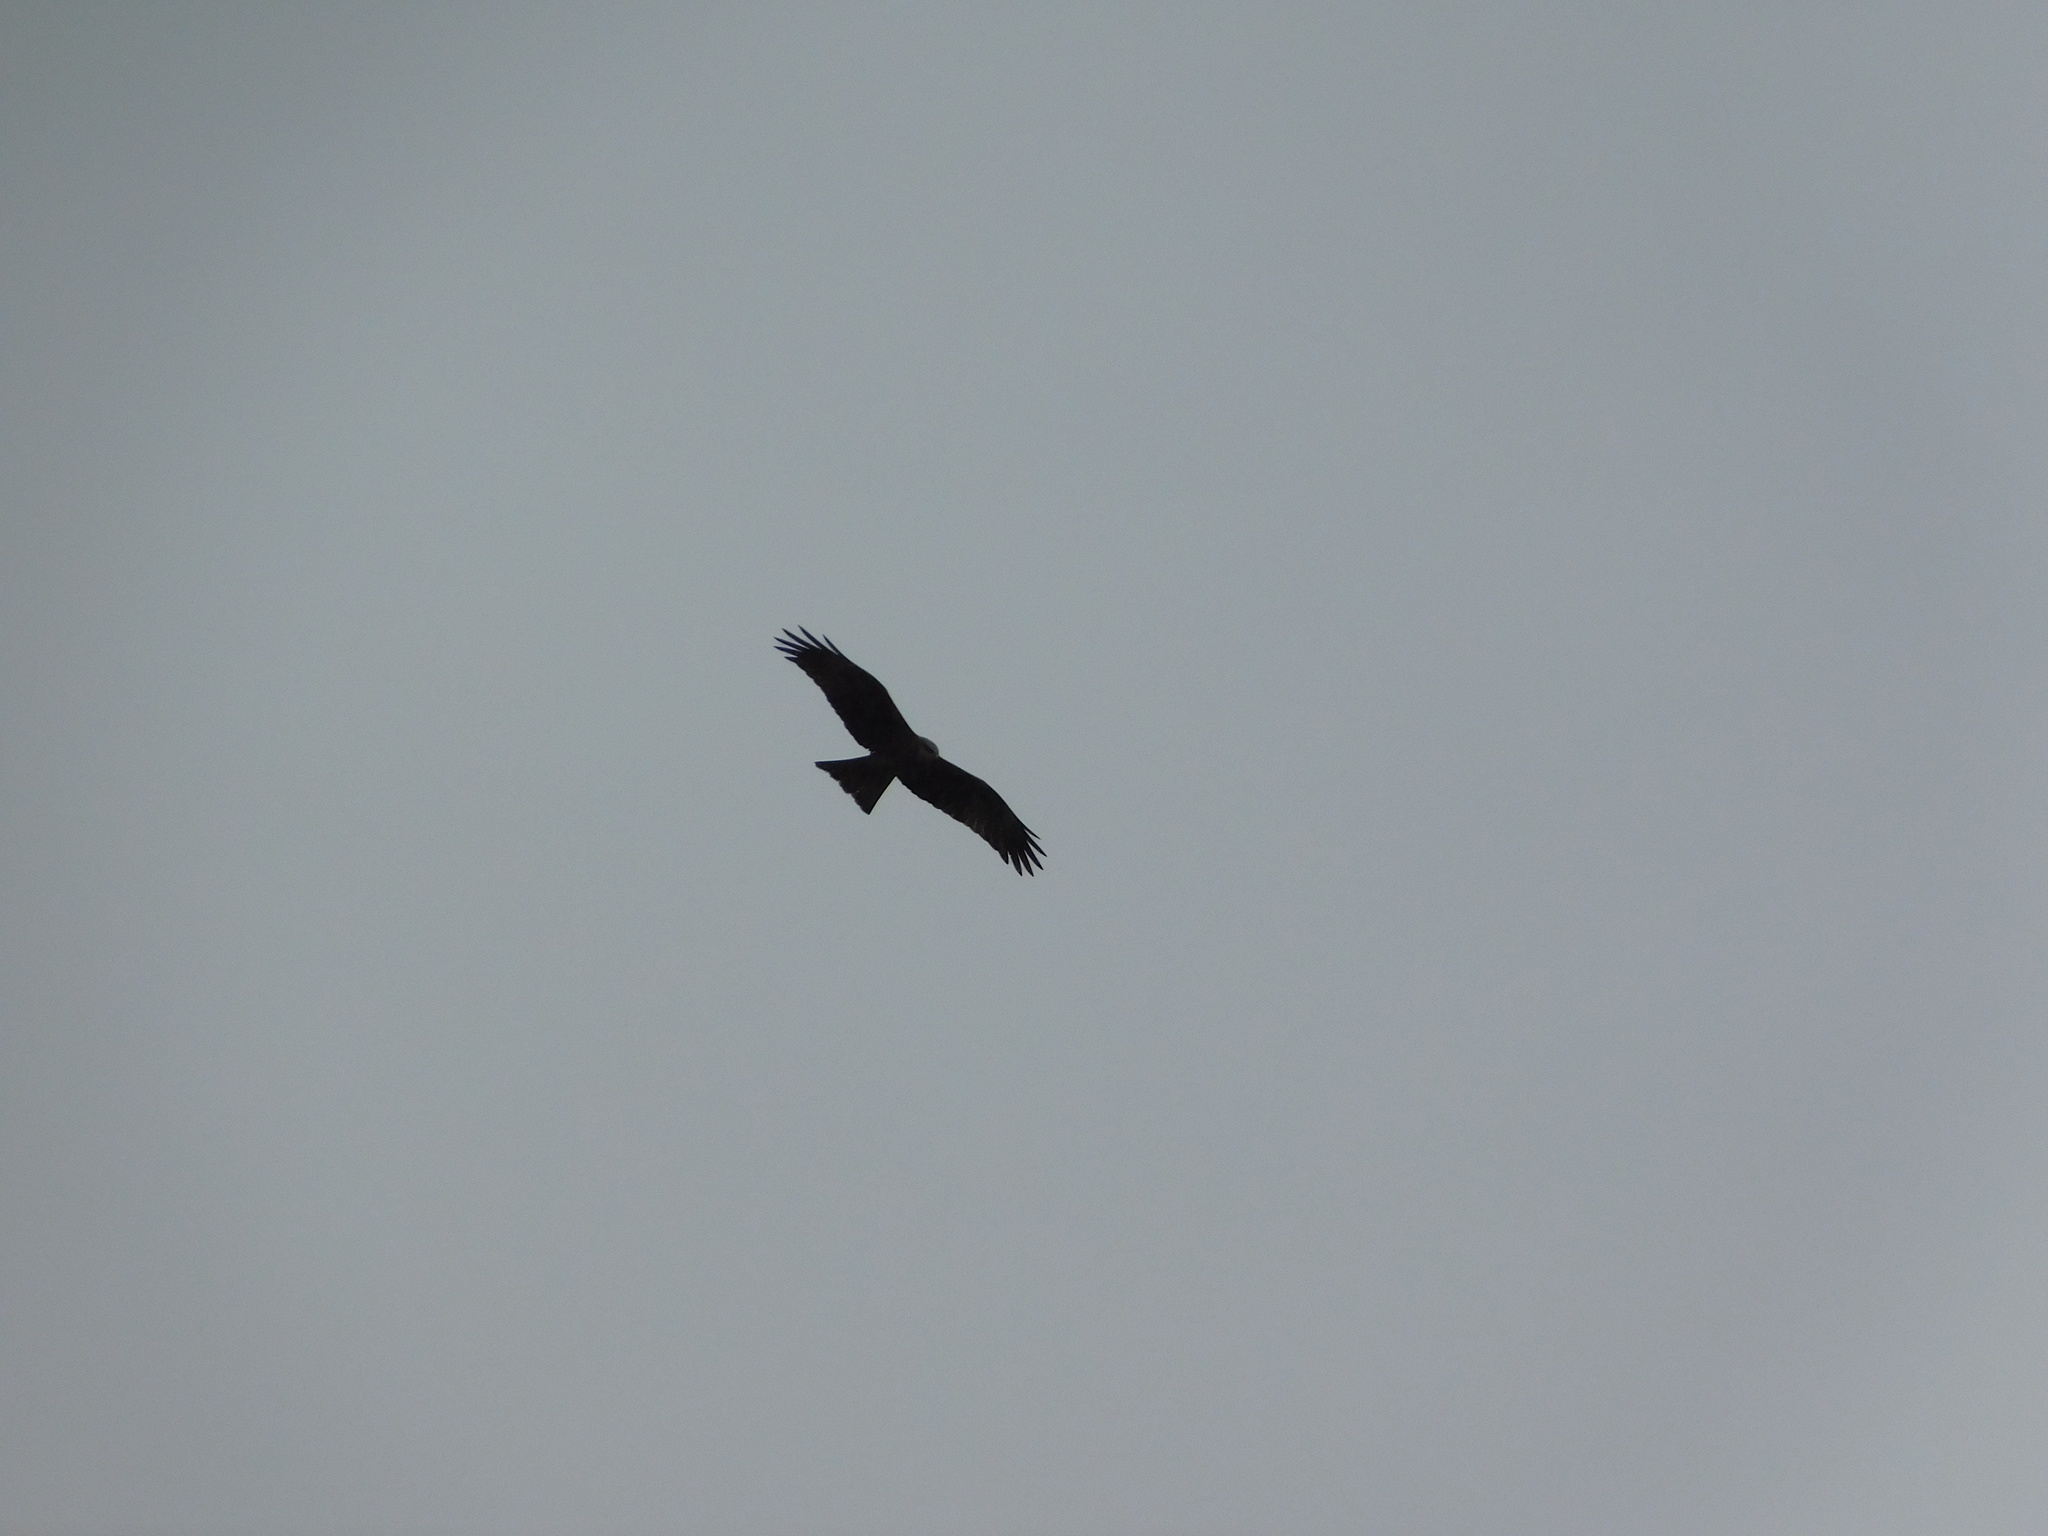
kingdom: Animalia
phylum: Chordata
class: Aves
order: Accipitriformes
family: Accipitridae
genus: Milvus
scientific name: Milvus migrans
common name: Black kite
